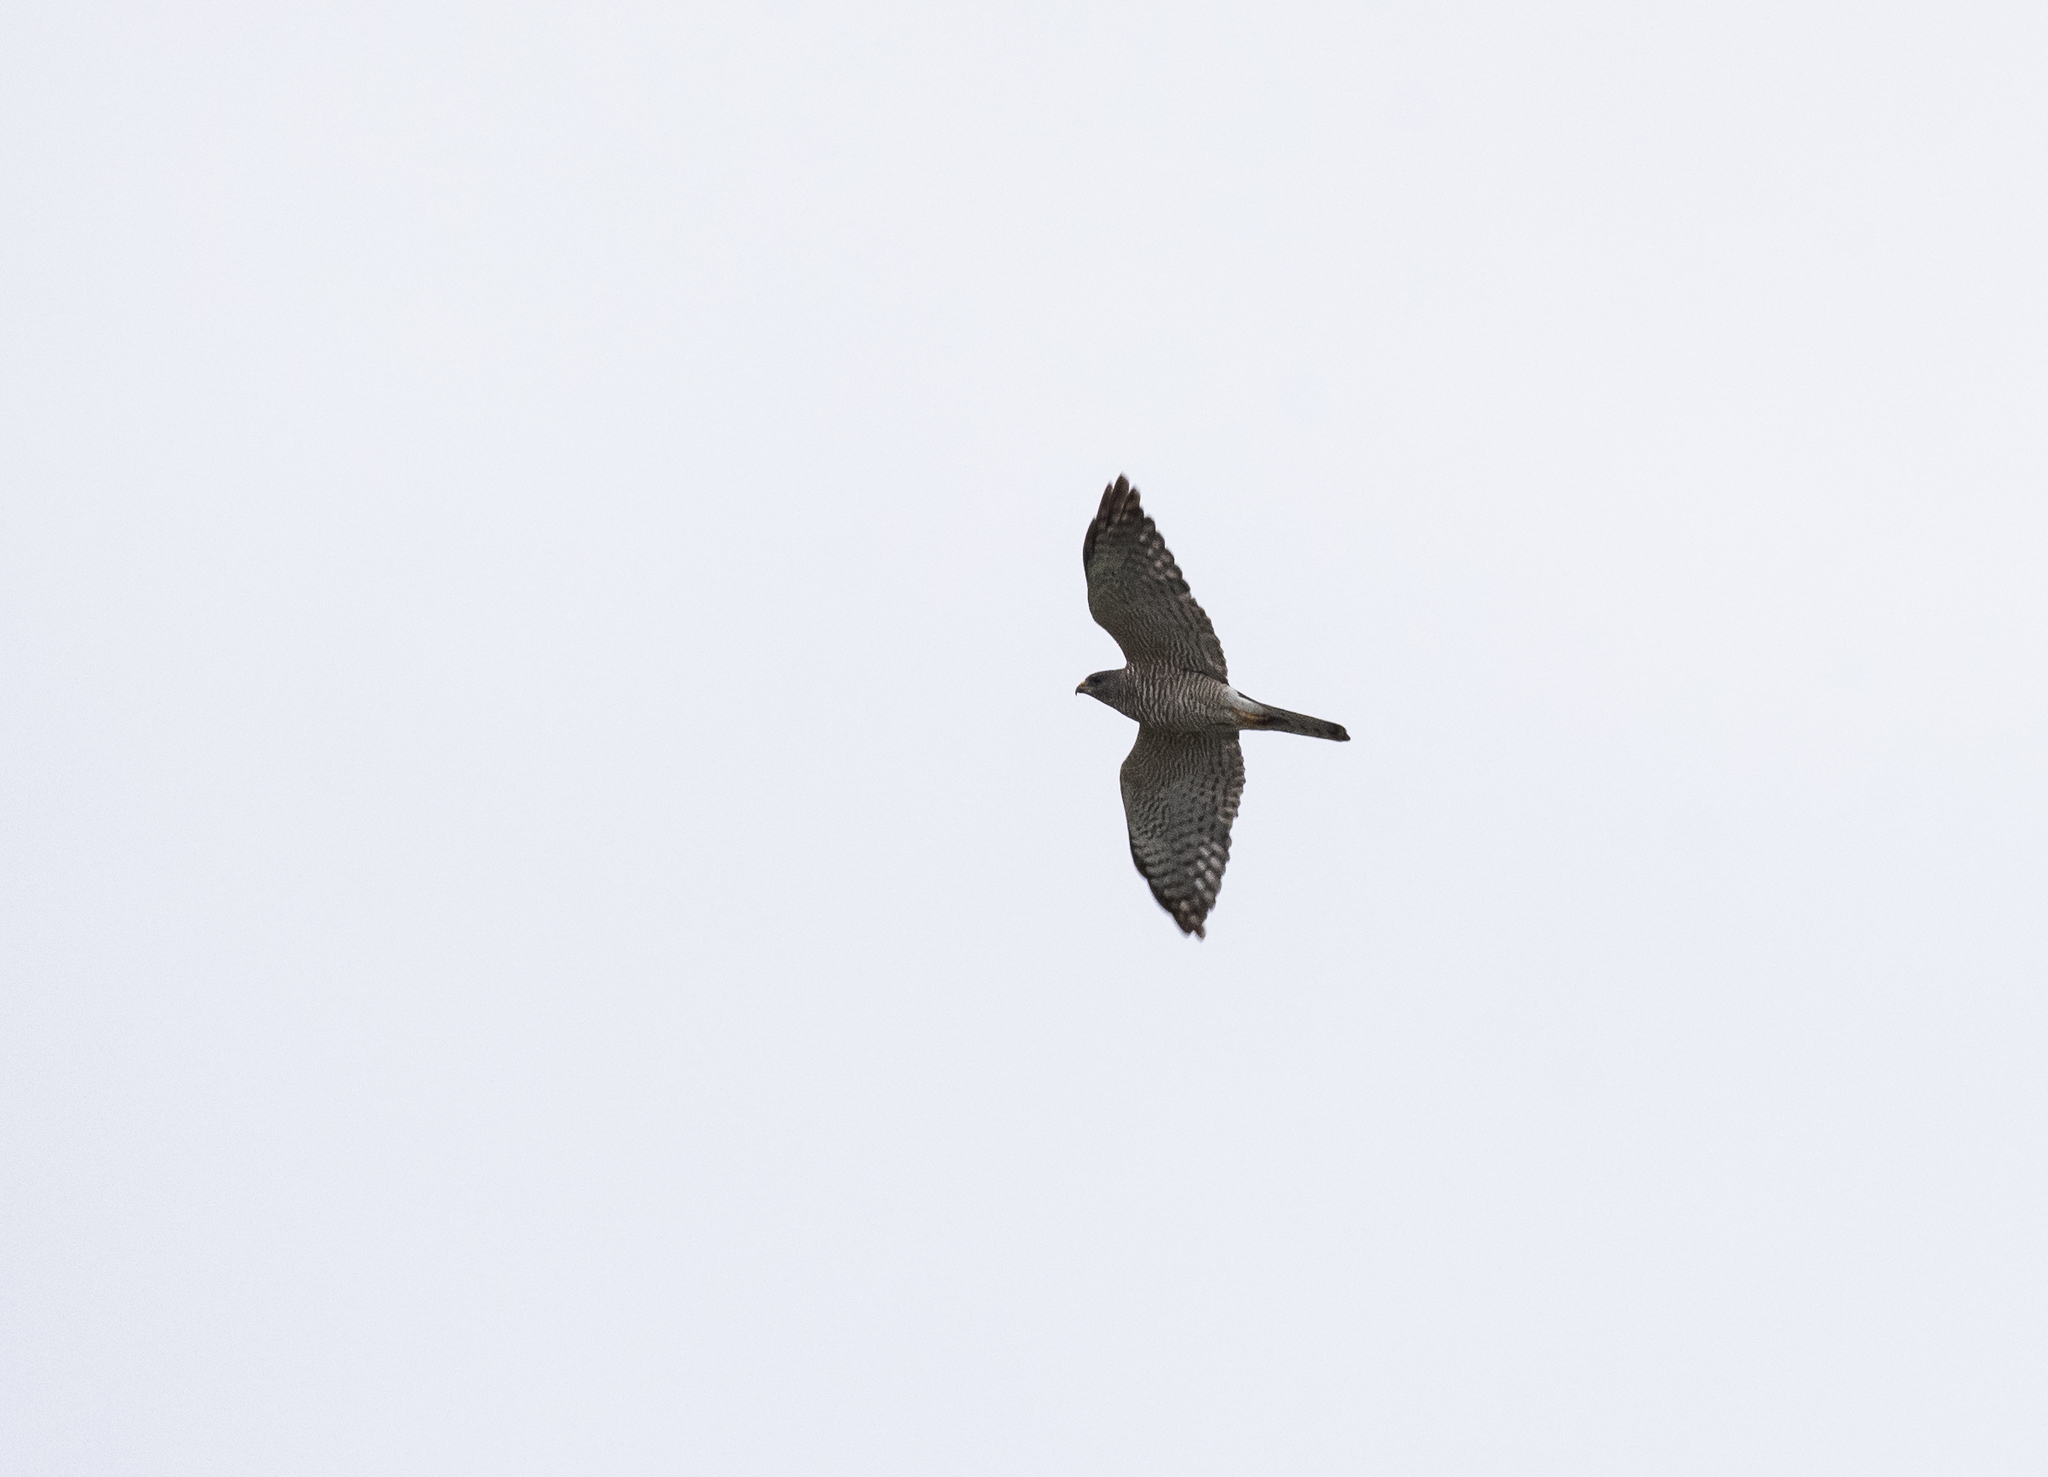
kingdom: Animalia
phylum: Chordata
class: Aves
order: Accipitriformes
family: Accipitridae
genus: Accipiter
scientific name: Accipiter brevipes
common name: Levant sparrowhawk
